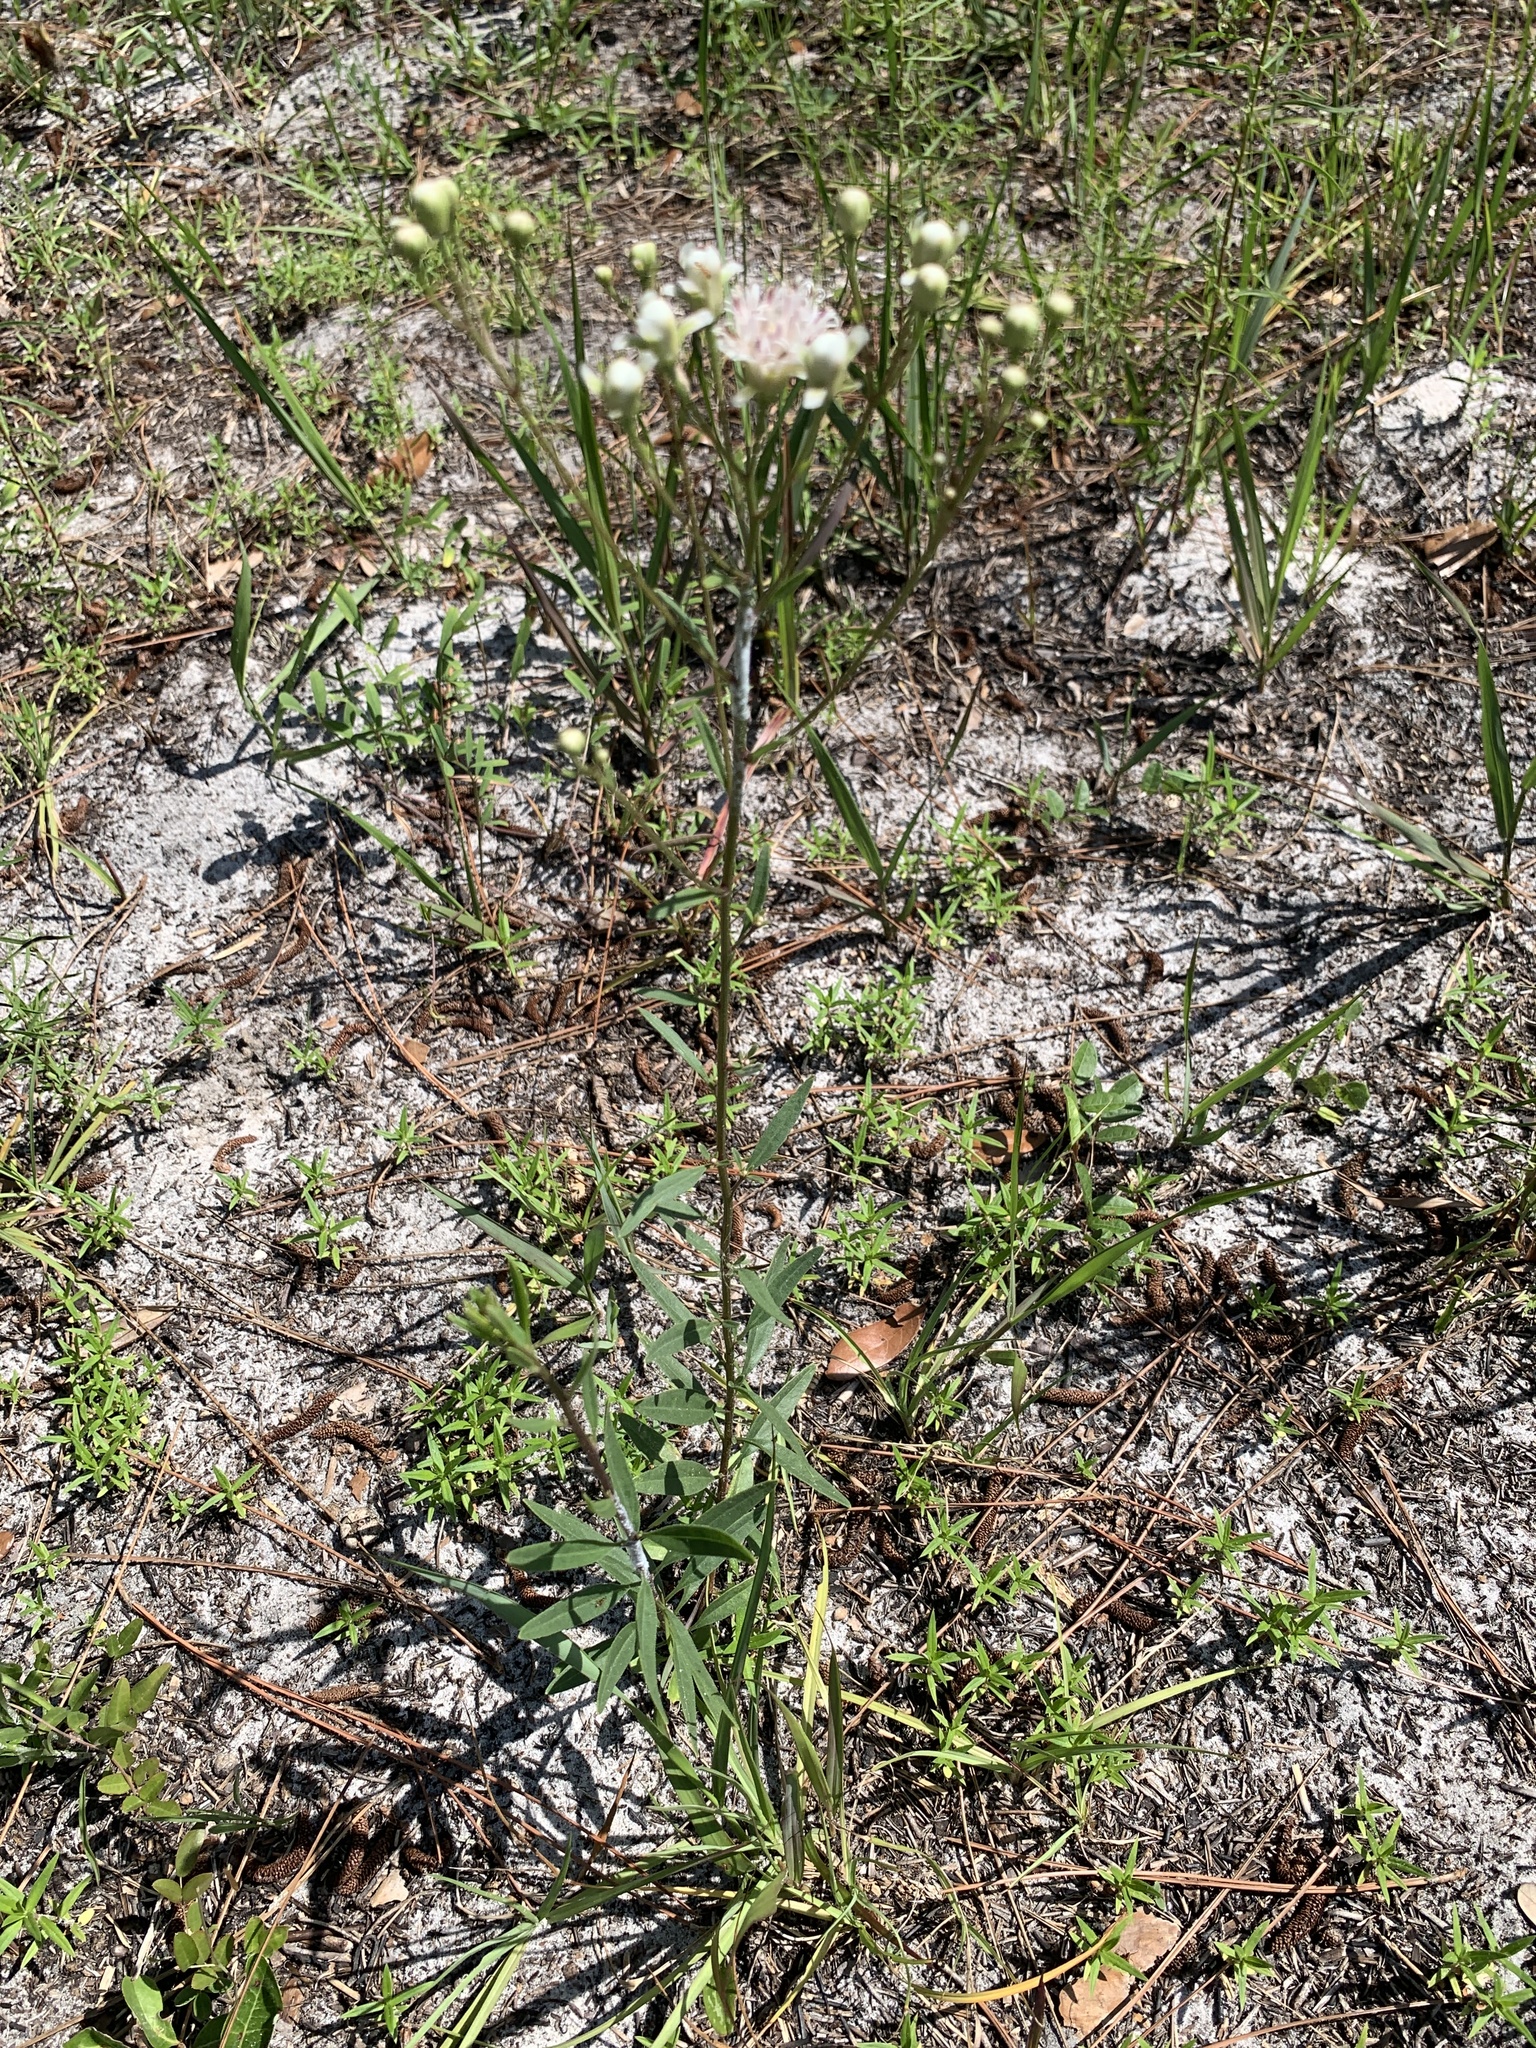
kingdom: Plantae
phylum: Tracheophyta
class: Magnoliopsida
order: Asterales
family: Asteraceae
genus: Palafoxia
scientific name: Palafoxia integrifolia
